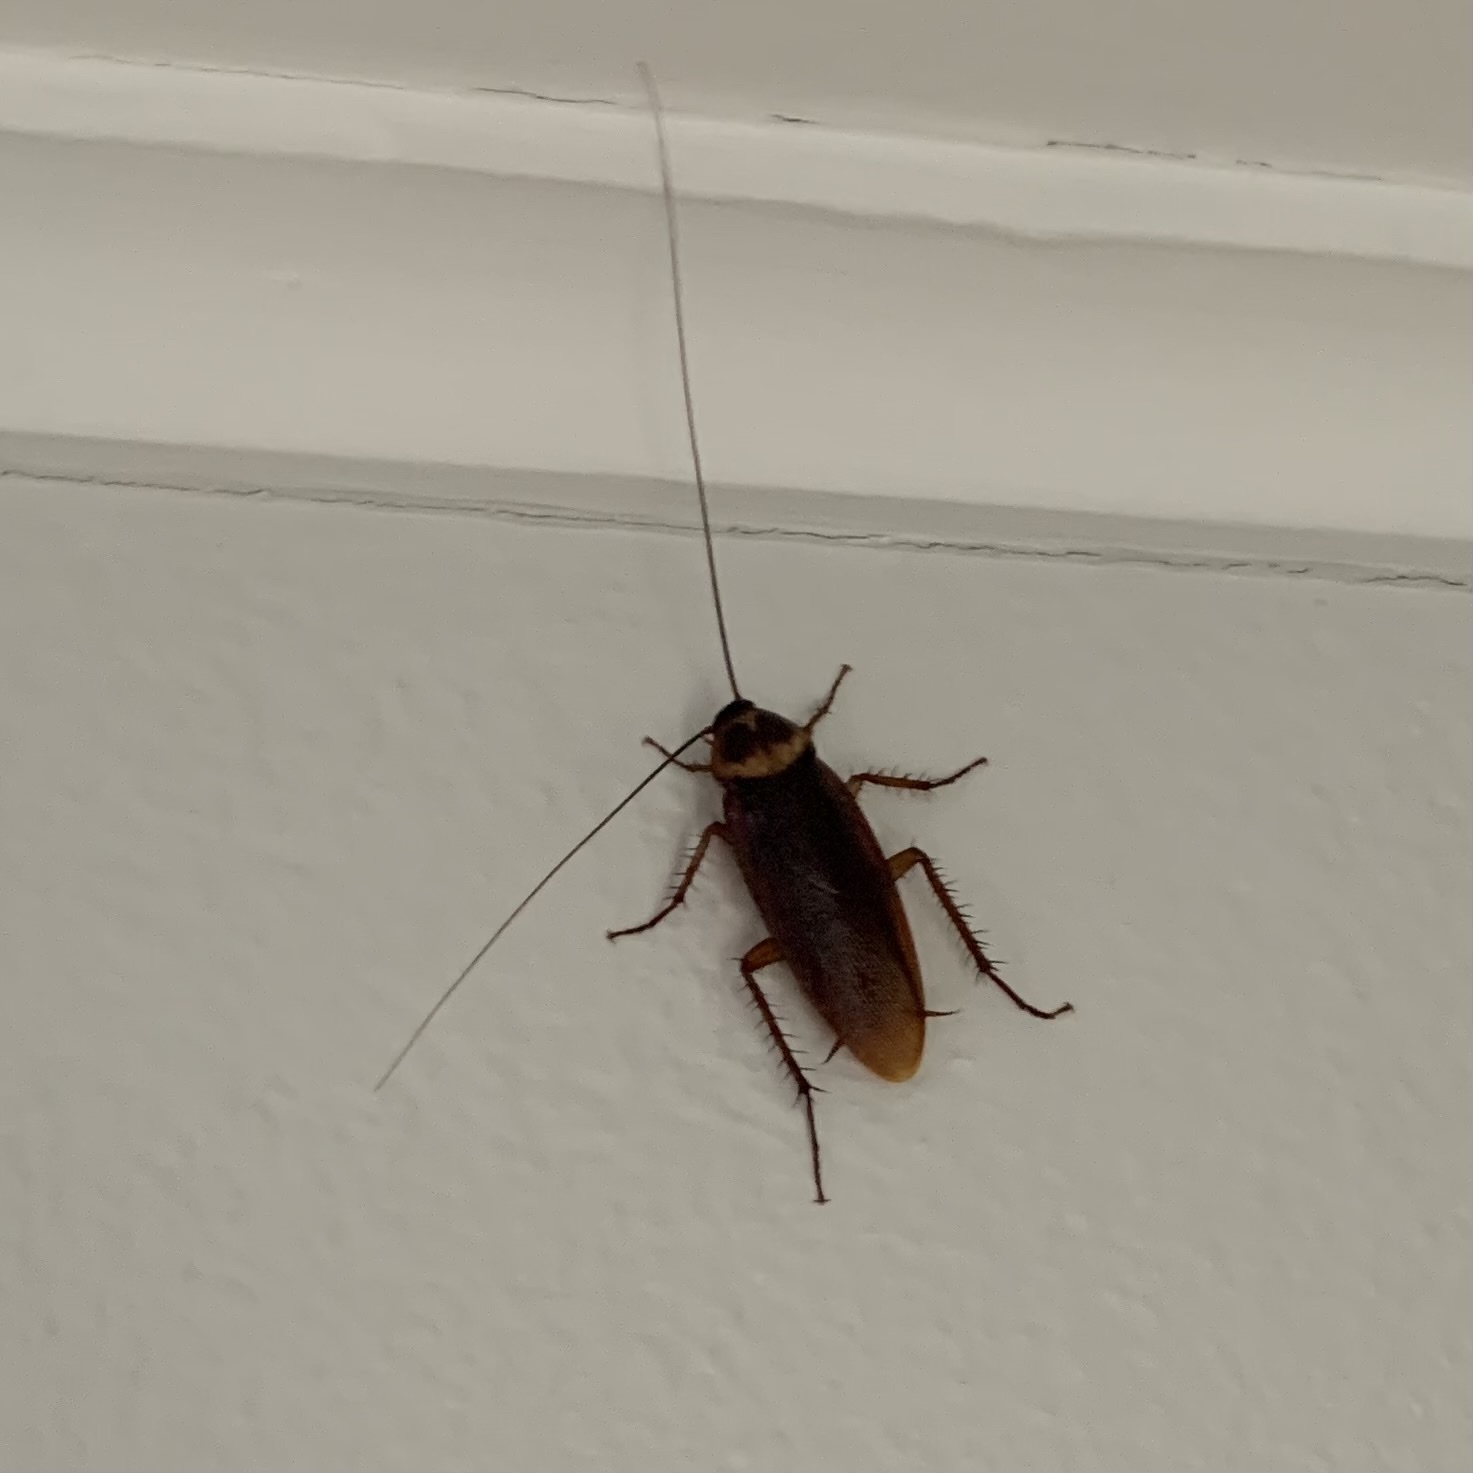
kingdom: Animalia
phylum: Arthropoda
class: Insecta
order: Blattodea
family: Blattidae
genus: Periplaneta
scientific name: Periplaneta americana
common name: American cockroach
